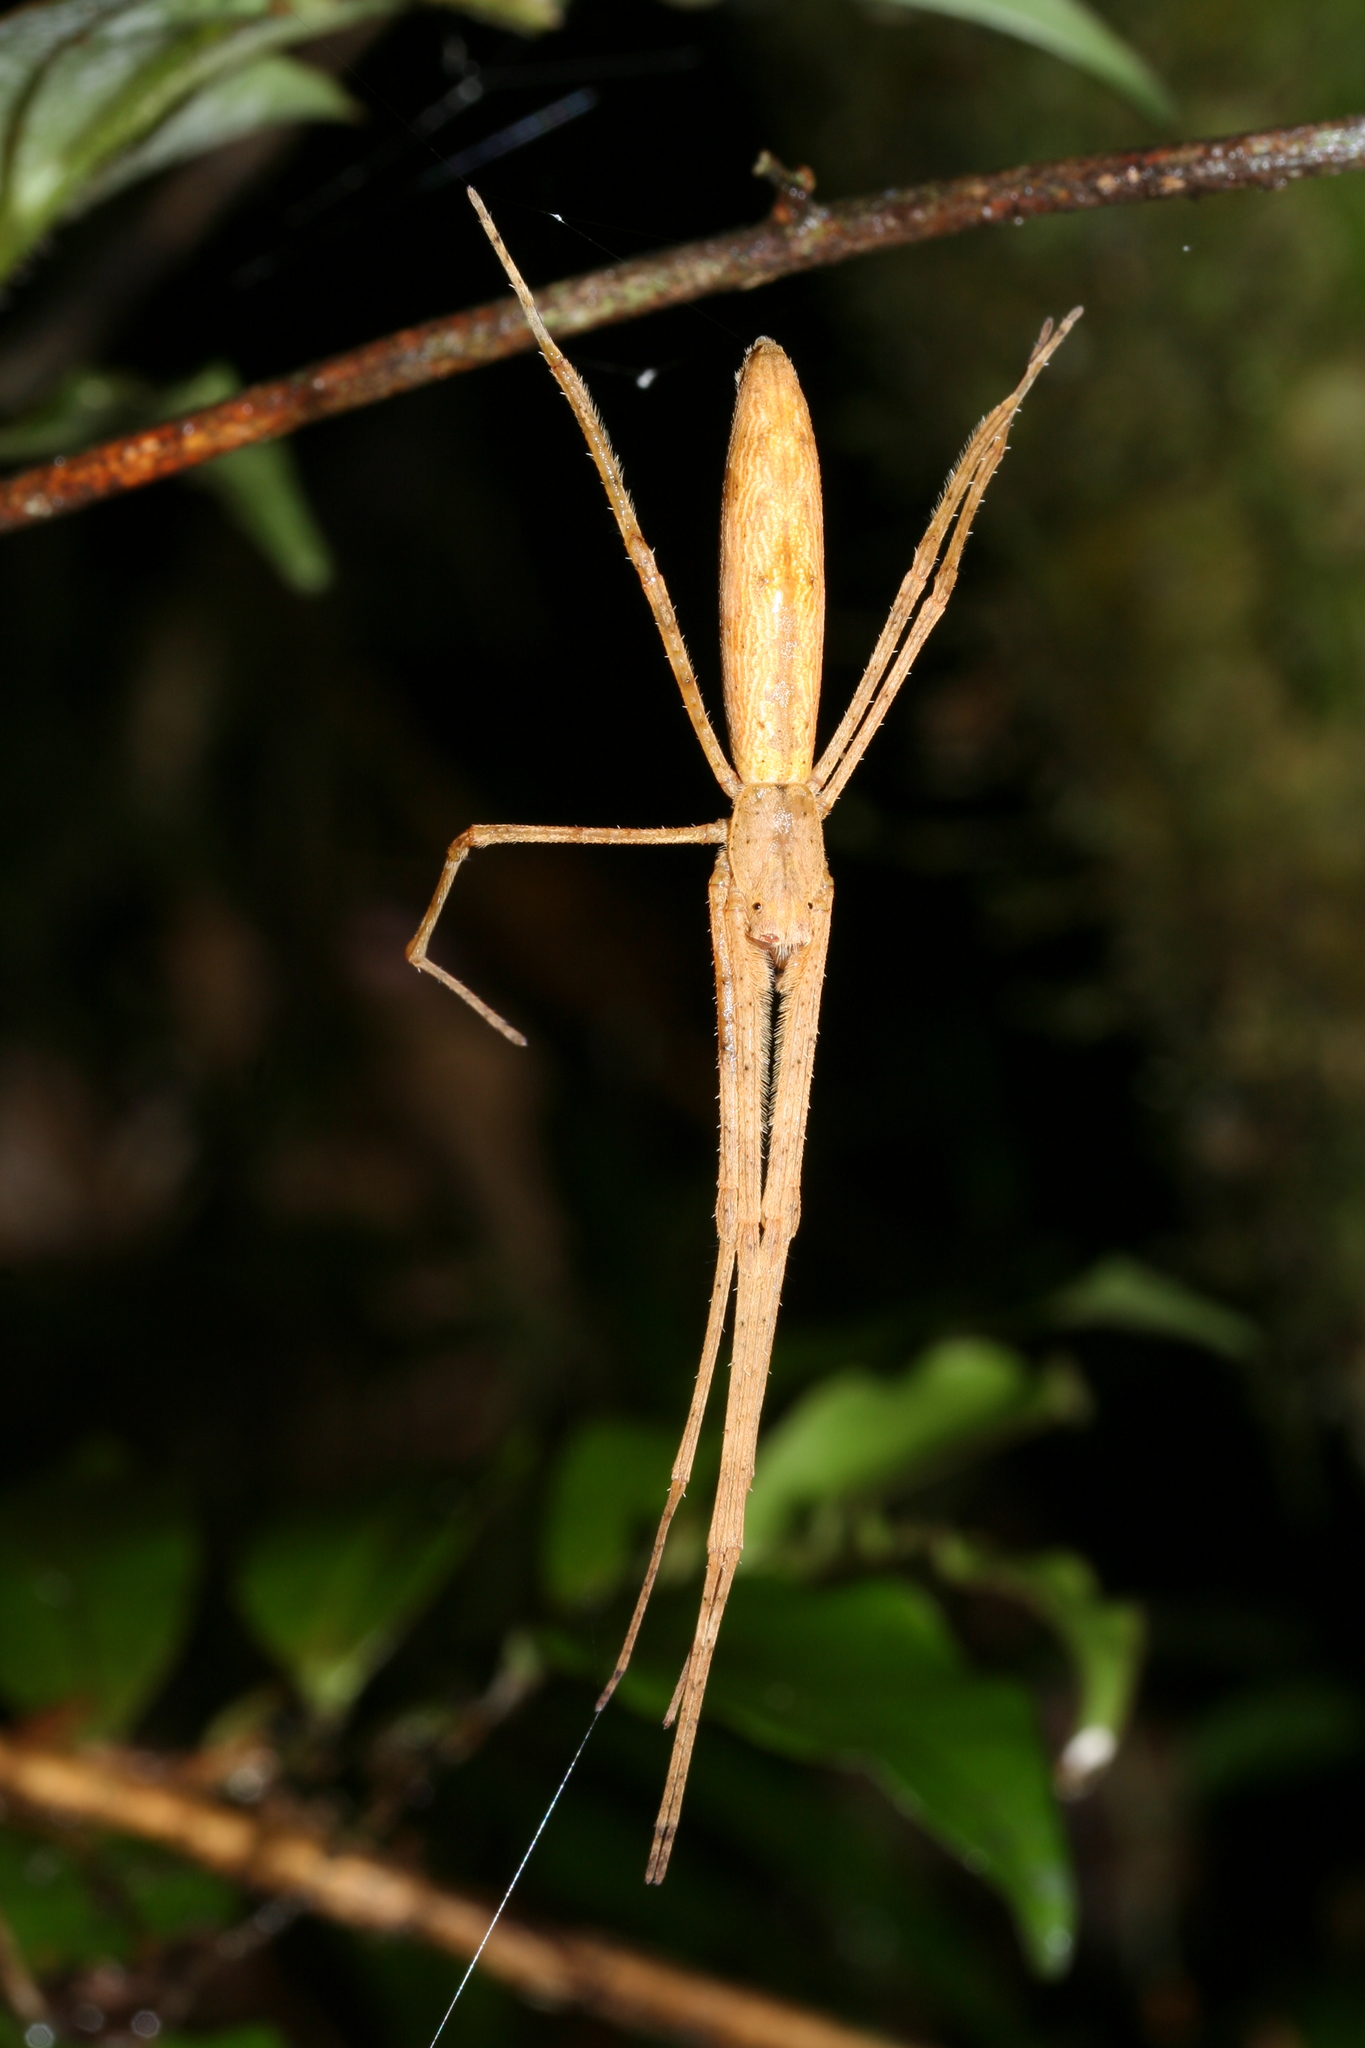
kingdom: Animalia
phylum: Arthropoda
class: Arachnida
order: Araneae
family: Deinopidae
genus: Deinopis
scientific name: Deinopis madagascariensis
